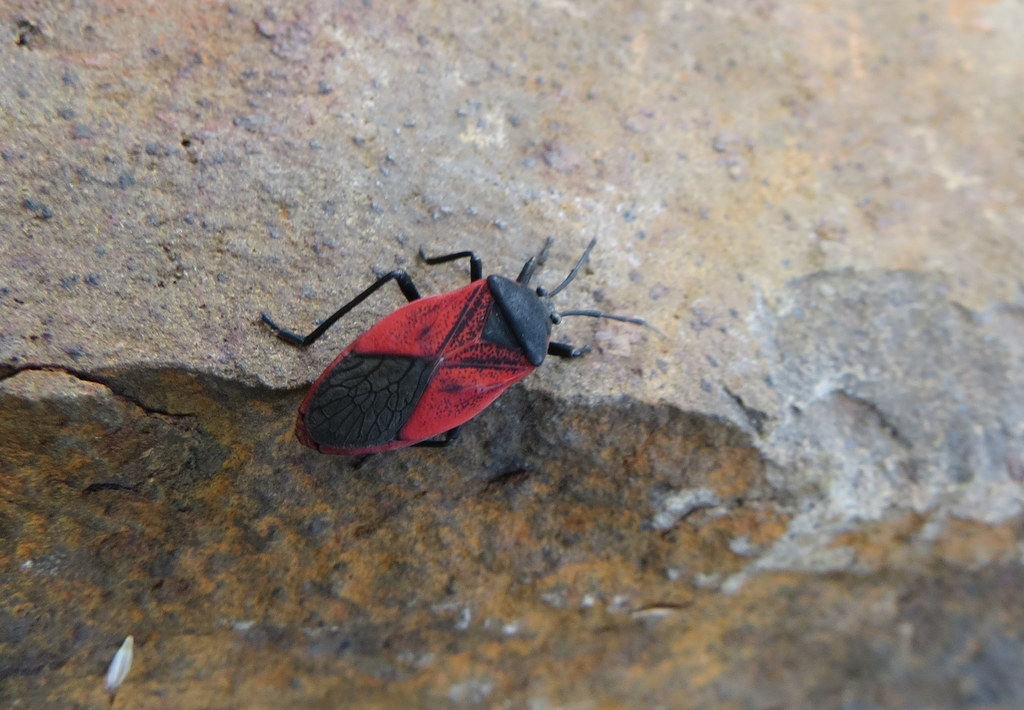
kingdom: Animalia
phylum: Arthropoda
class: Insecta
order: Hemiptera
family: Largidae
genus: Largus
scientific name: Largus rufipennis
